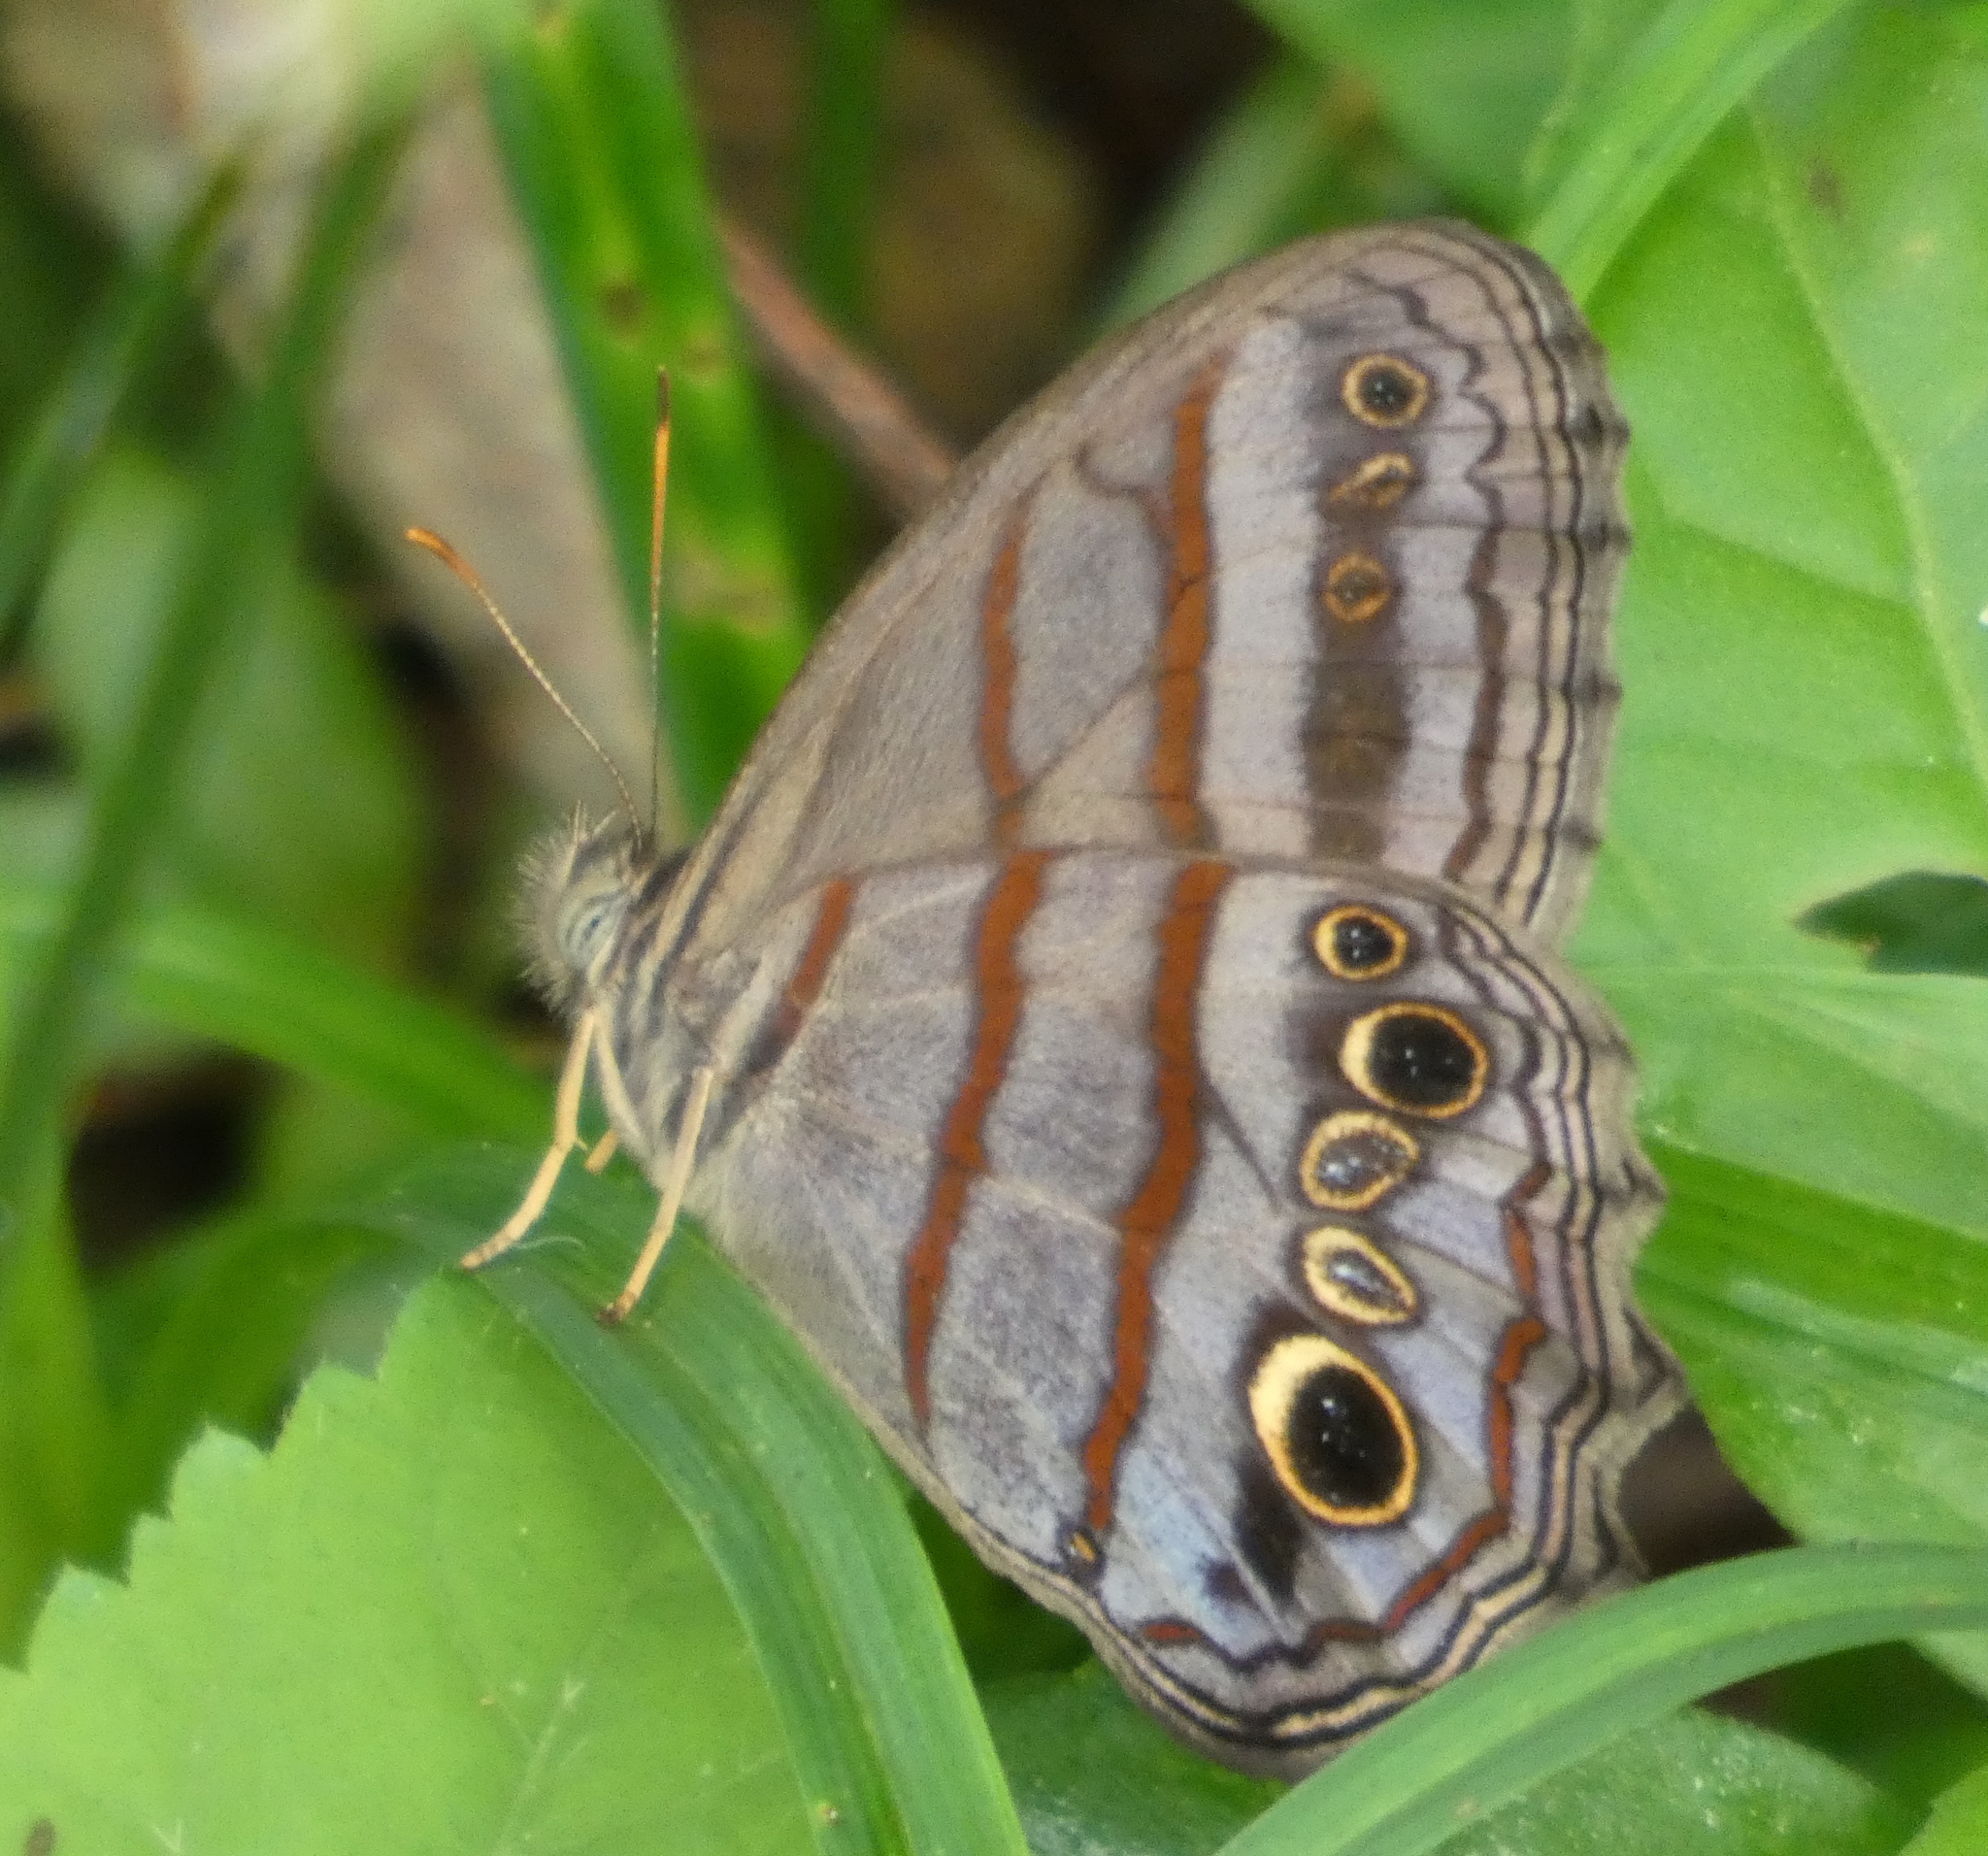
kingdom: Animalia
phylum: Arthropoda
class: Insecta
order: Lepidoptera
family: Nymphalidae
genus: Magneuptychia
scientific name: Magneuptychia libye
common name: Blue-gray satyr
